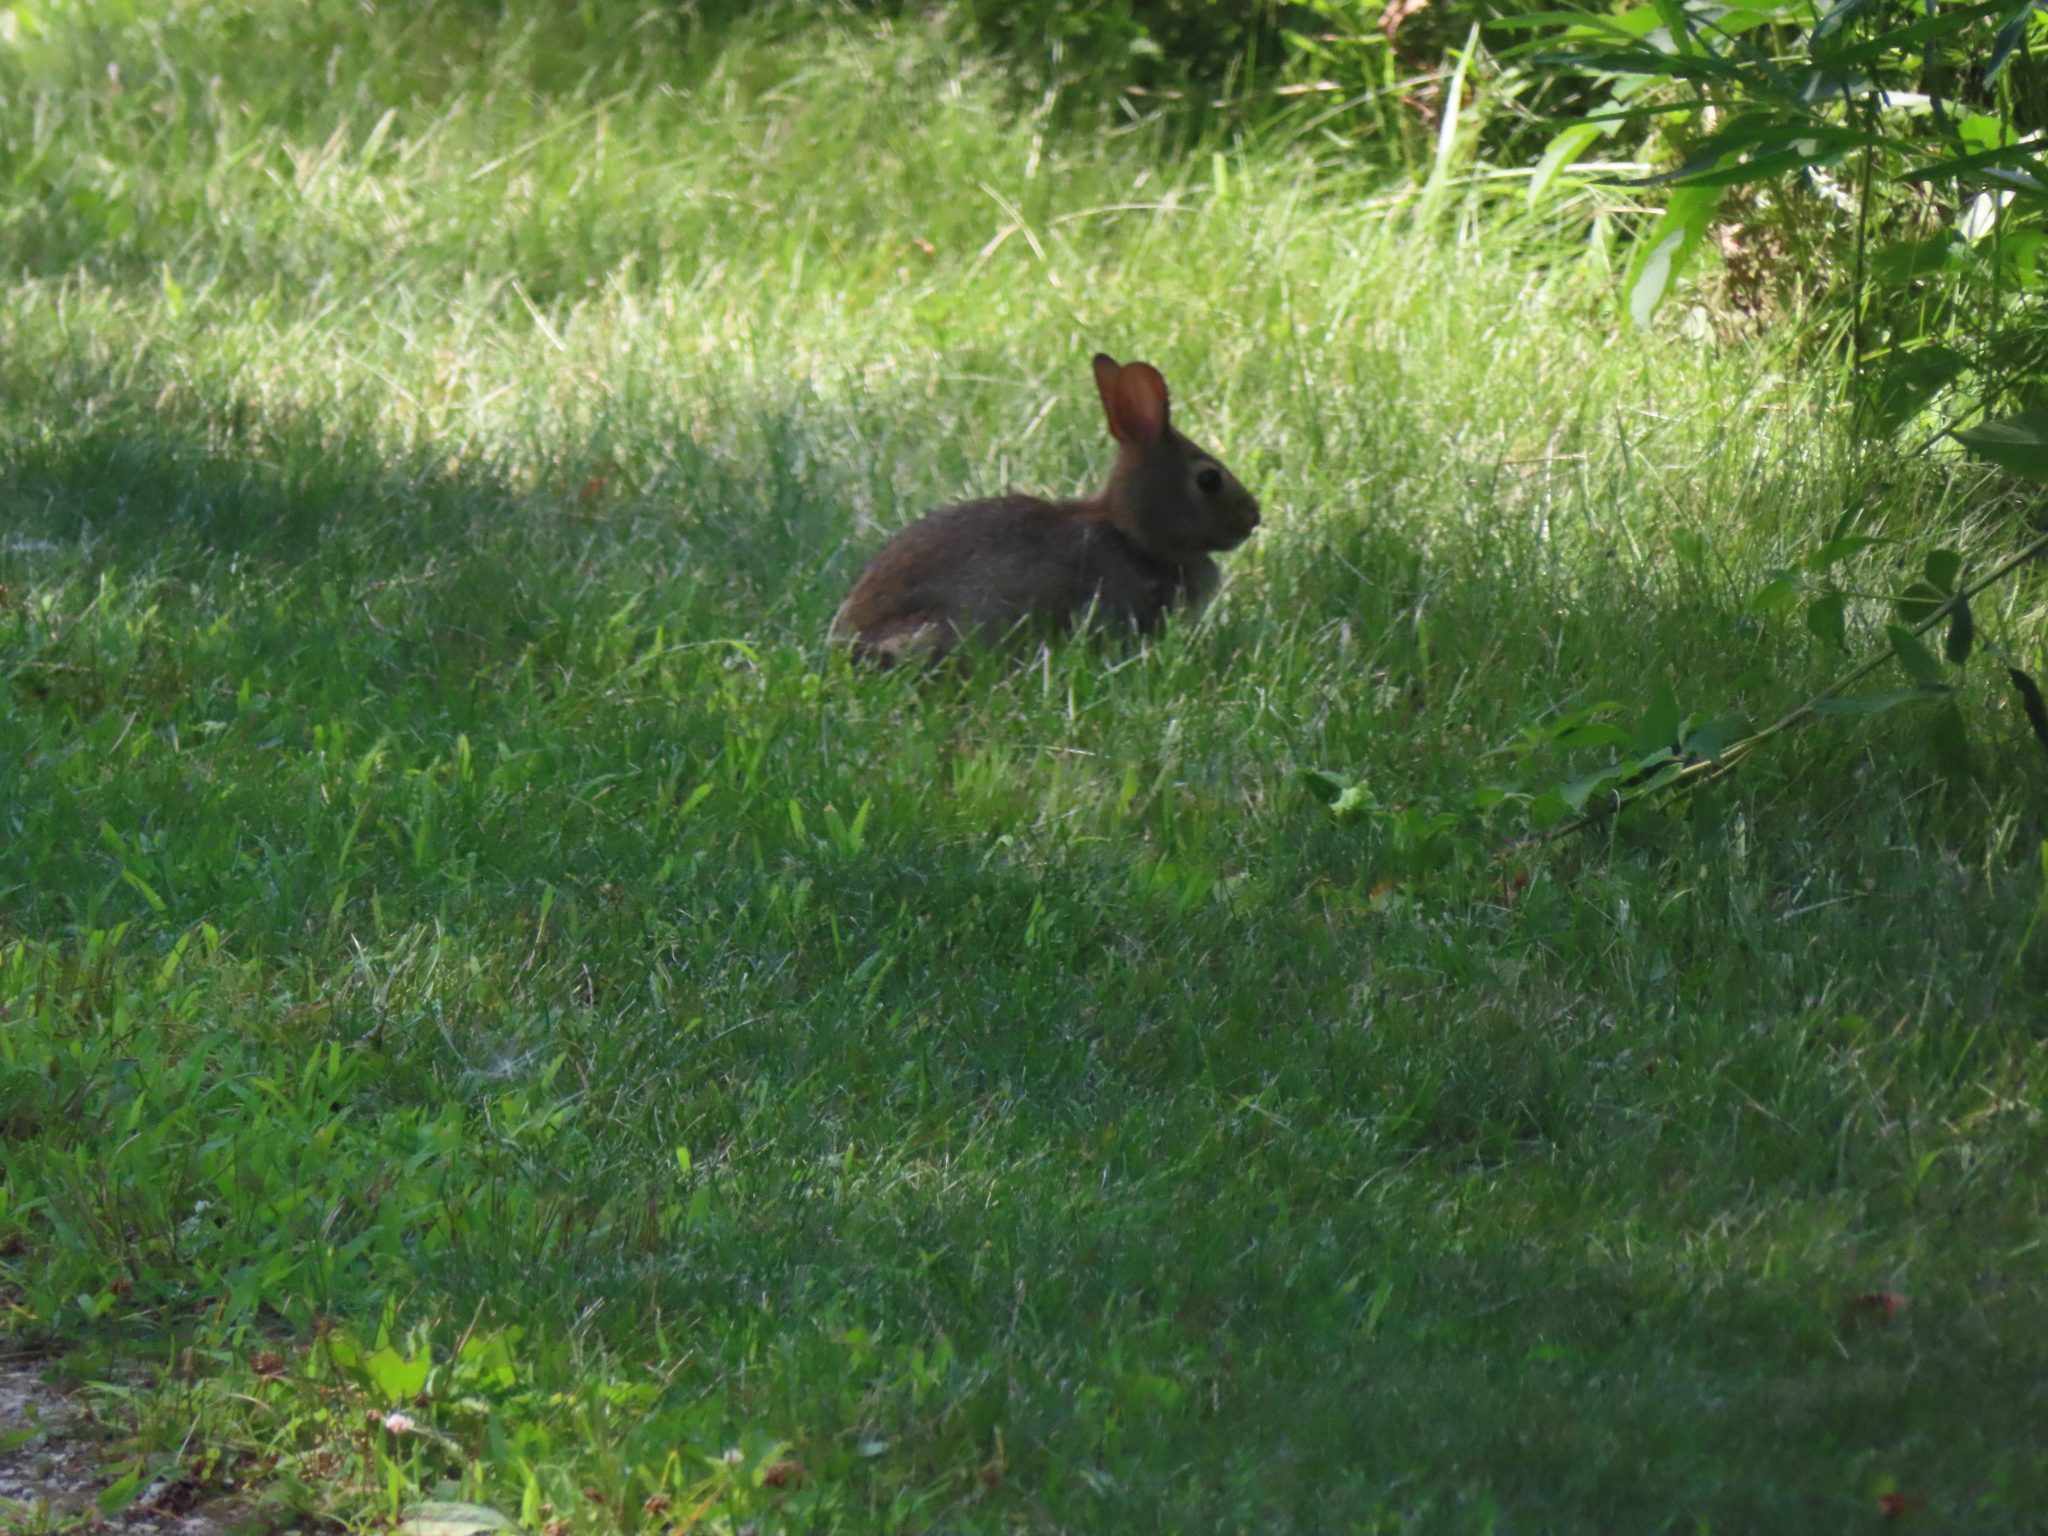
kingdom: Animalia
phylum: Chordata
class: Mammalia
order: Lagomorpha
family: Leporidae
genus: Sylvilagus
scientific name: Sylvilagus floridanus
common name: Eastern cottontail
